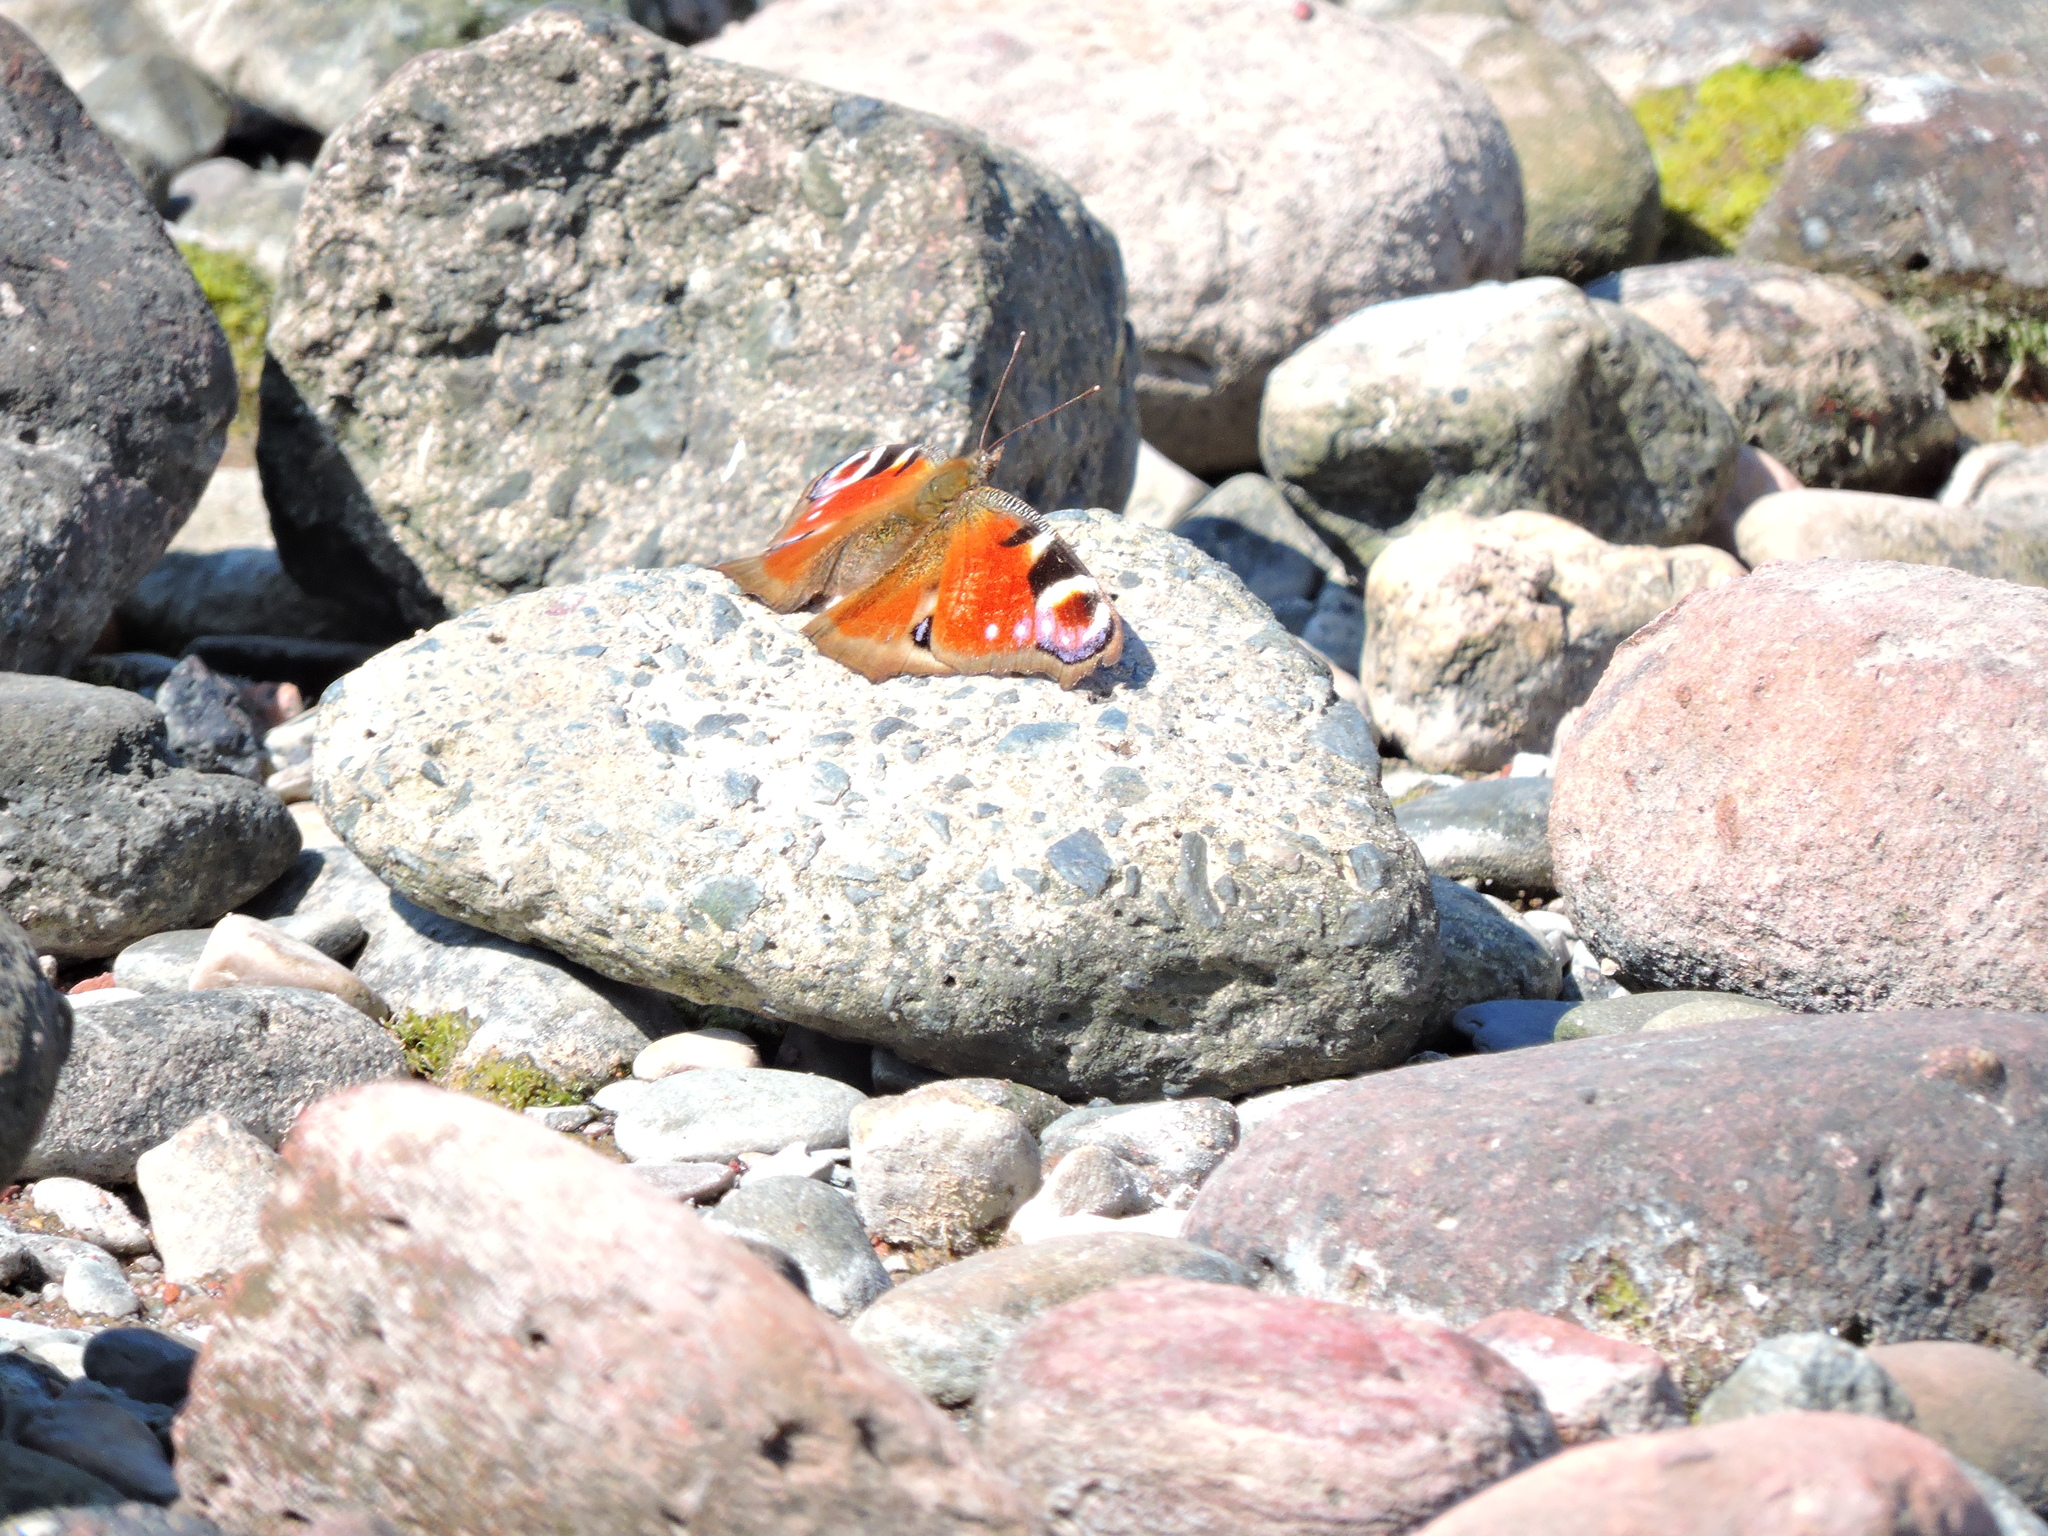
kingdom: Animalia
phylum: Arthropoda
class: Insecta
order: Lepidoptera
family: Nymphalidae
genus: Aglais
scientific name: Aglais io
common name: Peacock
